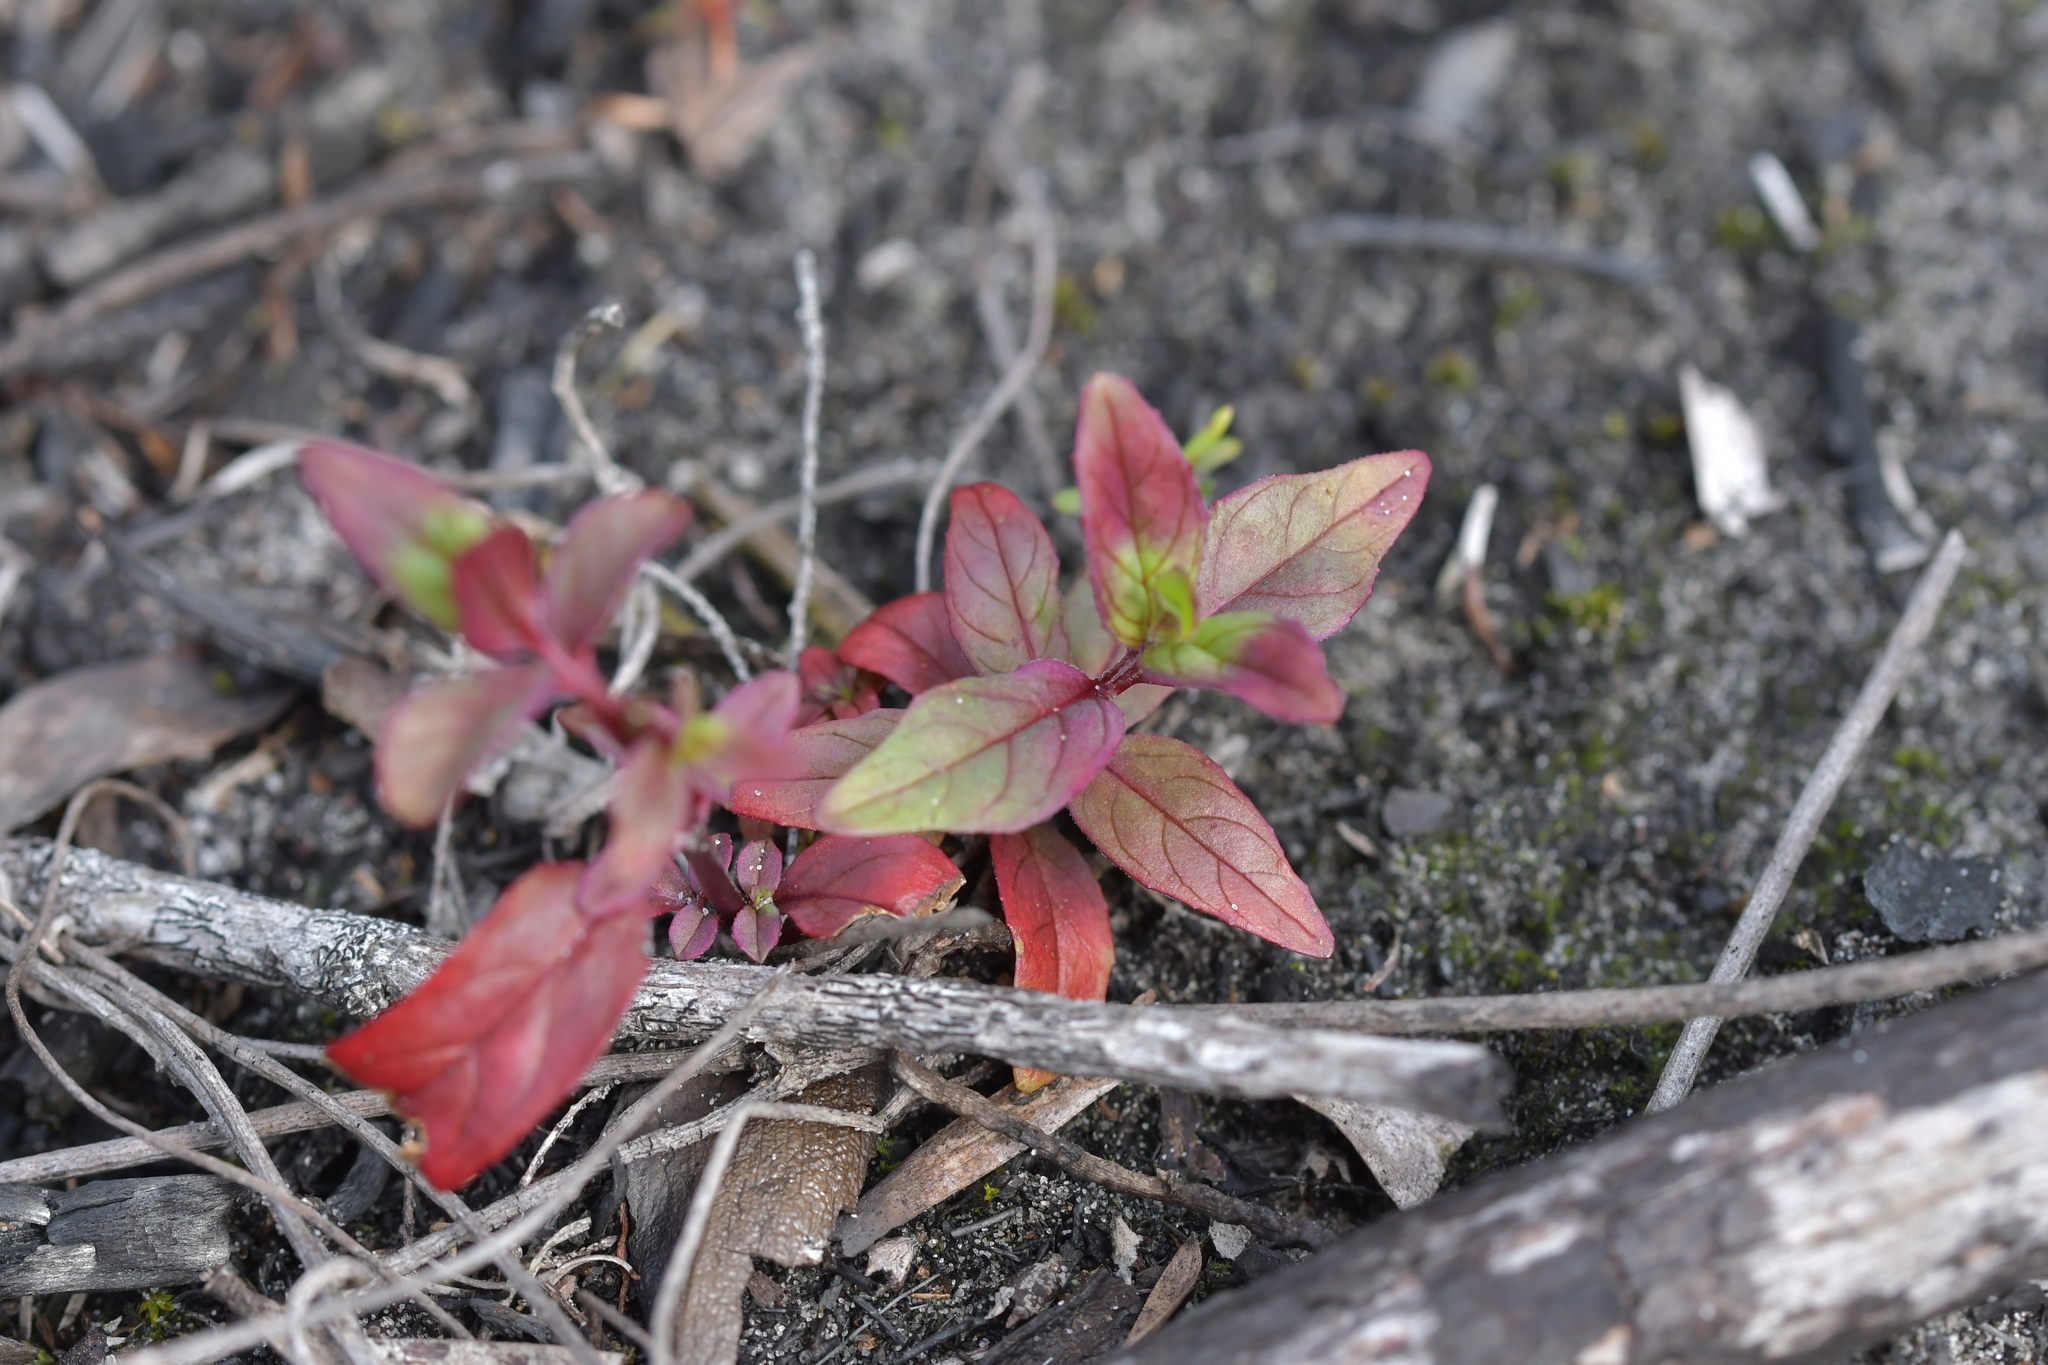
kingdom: Plantae
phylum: Tracheophyta
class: Magnoliopsida
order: Myrtales
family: Onagraceae
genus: Epilobium
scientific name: Epilobium ciliatum
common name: American willowherb
